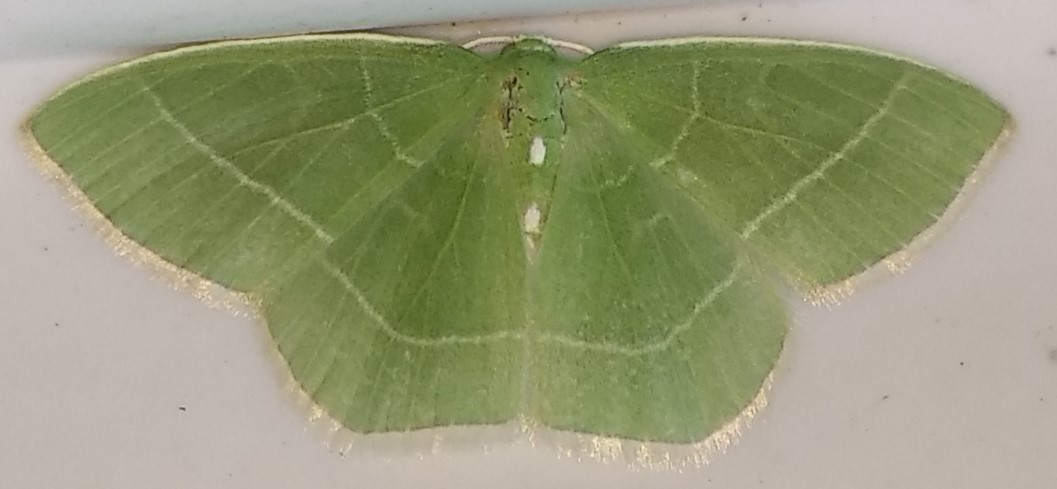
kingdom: Animalia
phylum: Arthropoda
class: Insecta
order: Lepidoptera
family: Geometridae
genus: Nemoria
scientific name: Nemoria mimosaria
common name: White-fringed emerald
